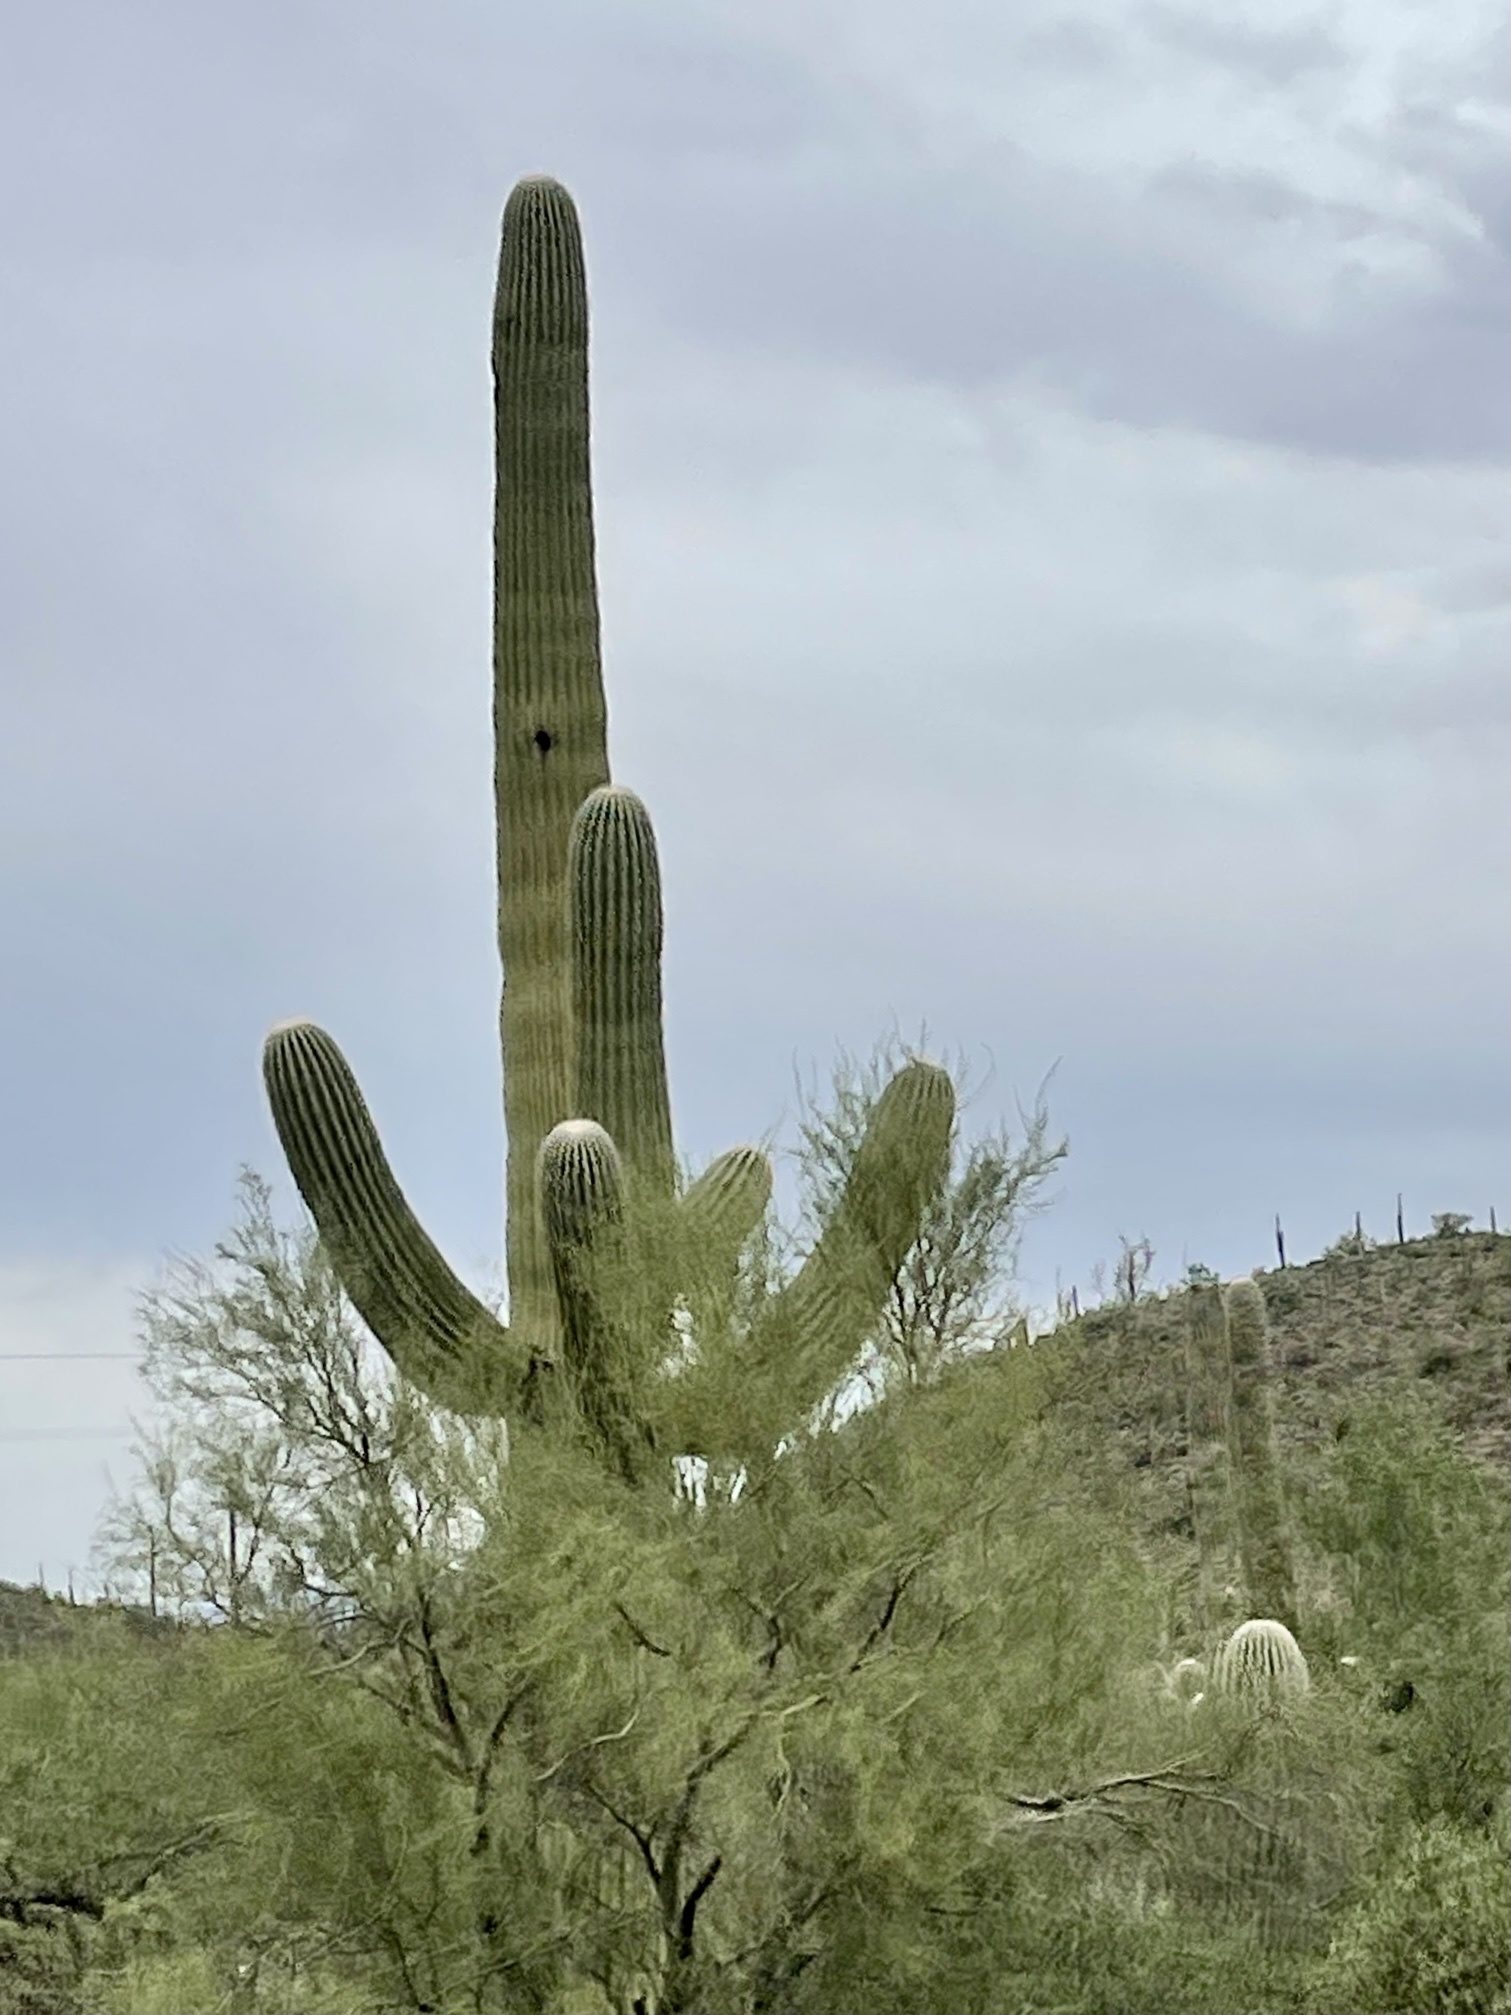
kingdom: Plantae
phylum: Tracheophyta
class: Magnoliopsida
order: Caryophyllales
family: Cactaceae
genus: Carnegiea
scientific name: Carnegiea gigantea
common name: Saguaro
